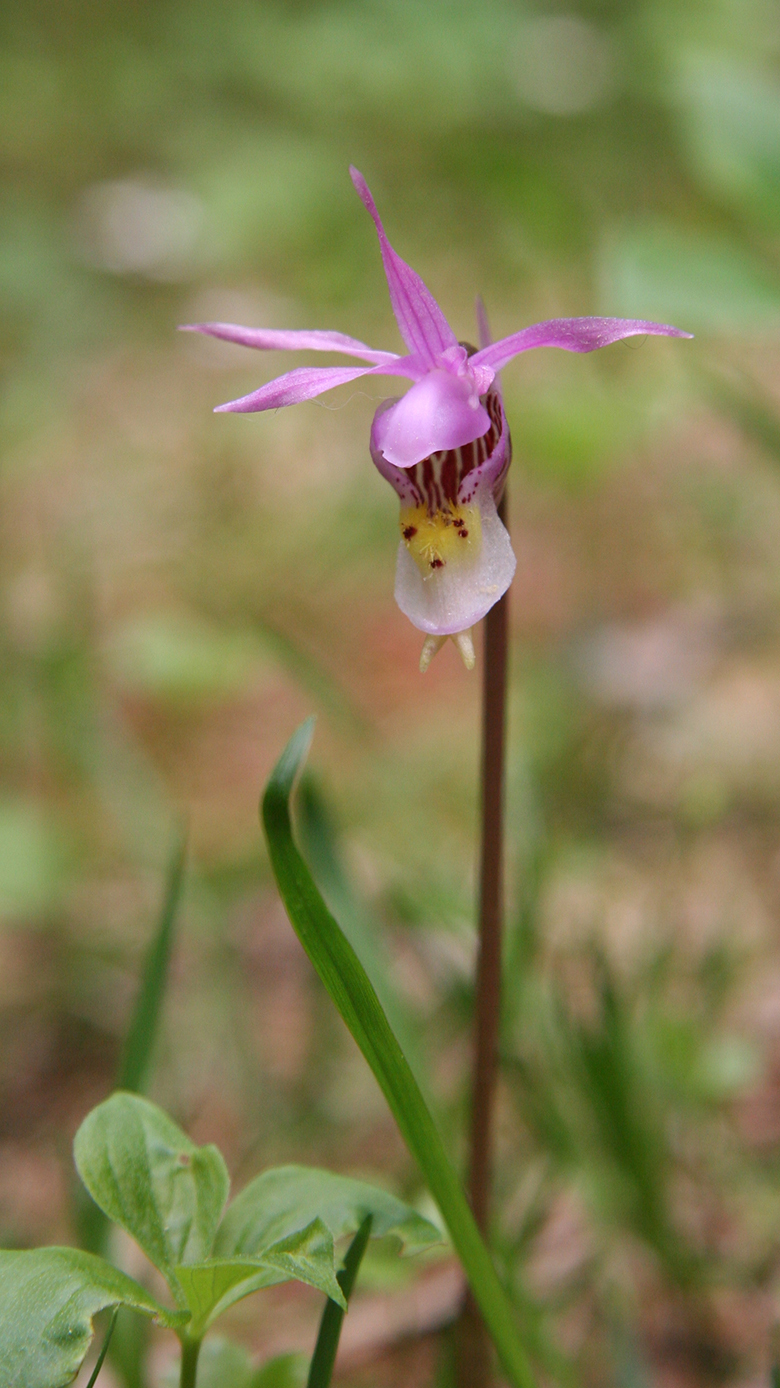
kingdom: Plantae
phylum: Tracheophyta
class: Liliopsida
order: Asparagales
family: Orchidaceae
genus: Calypso
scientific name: Calypso bulbosa
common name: Calypso
